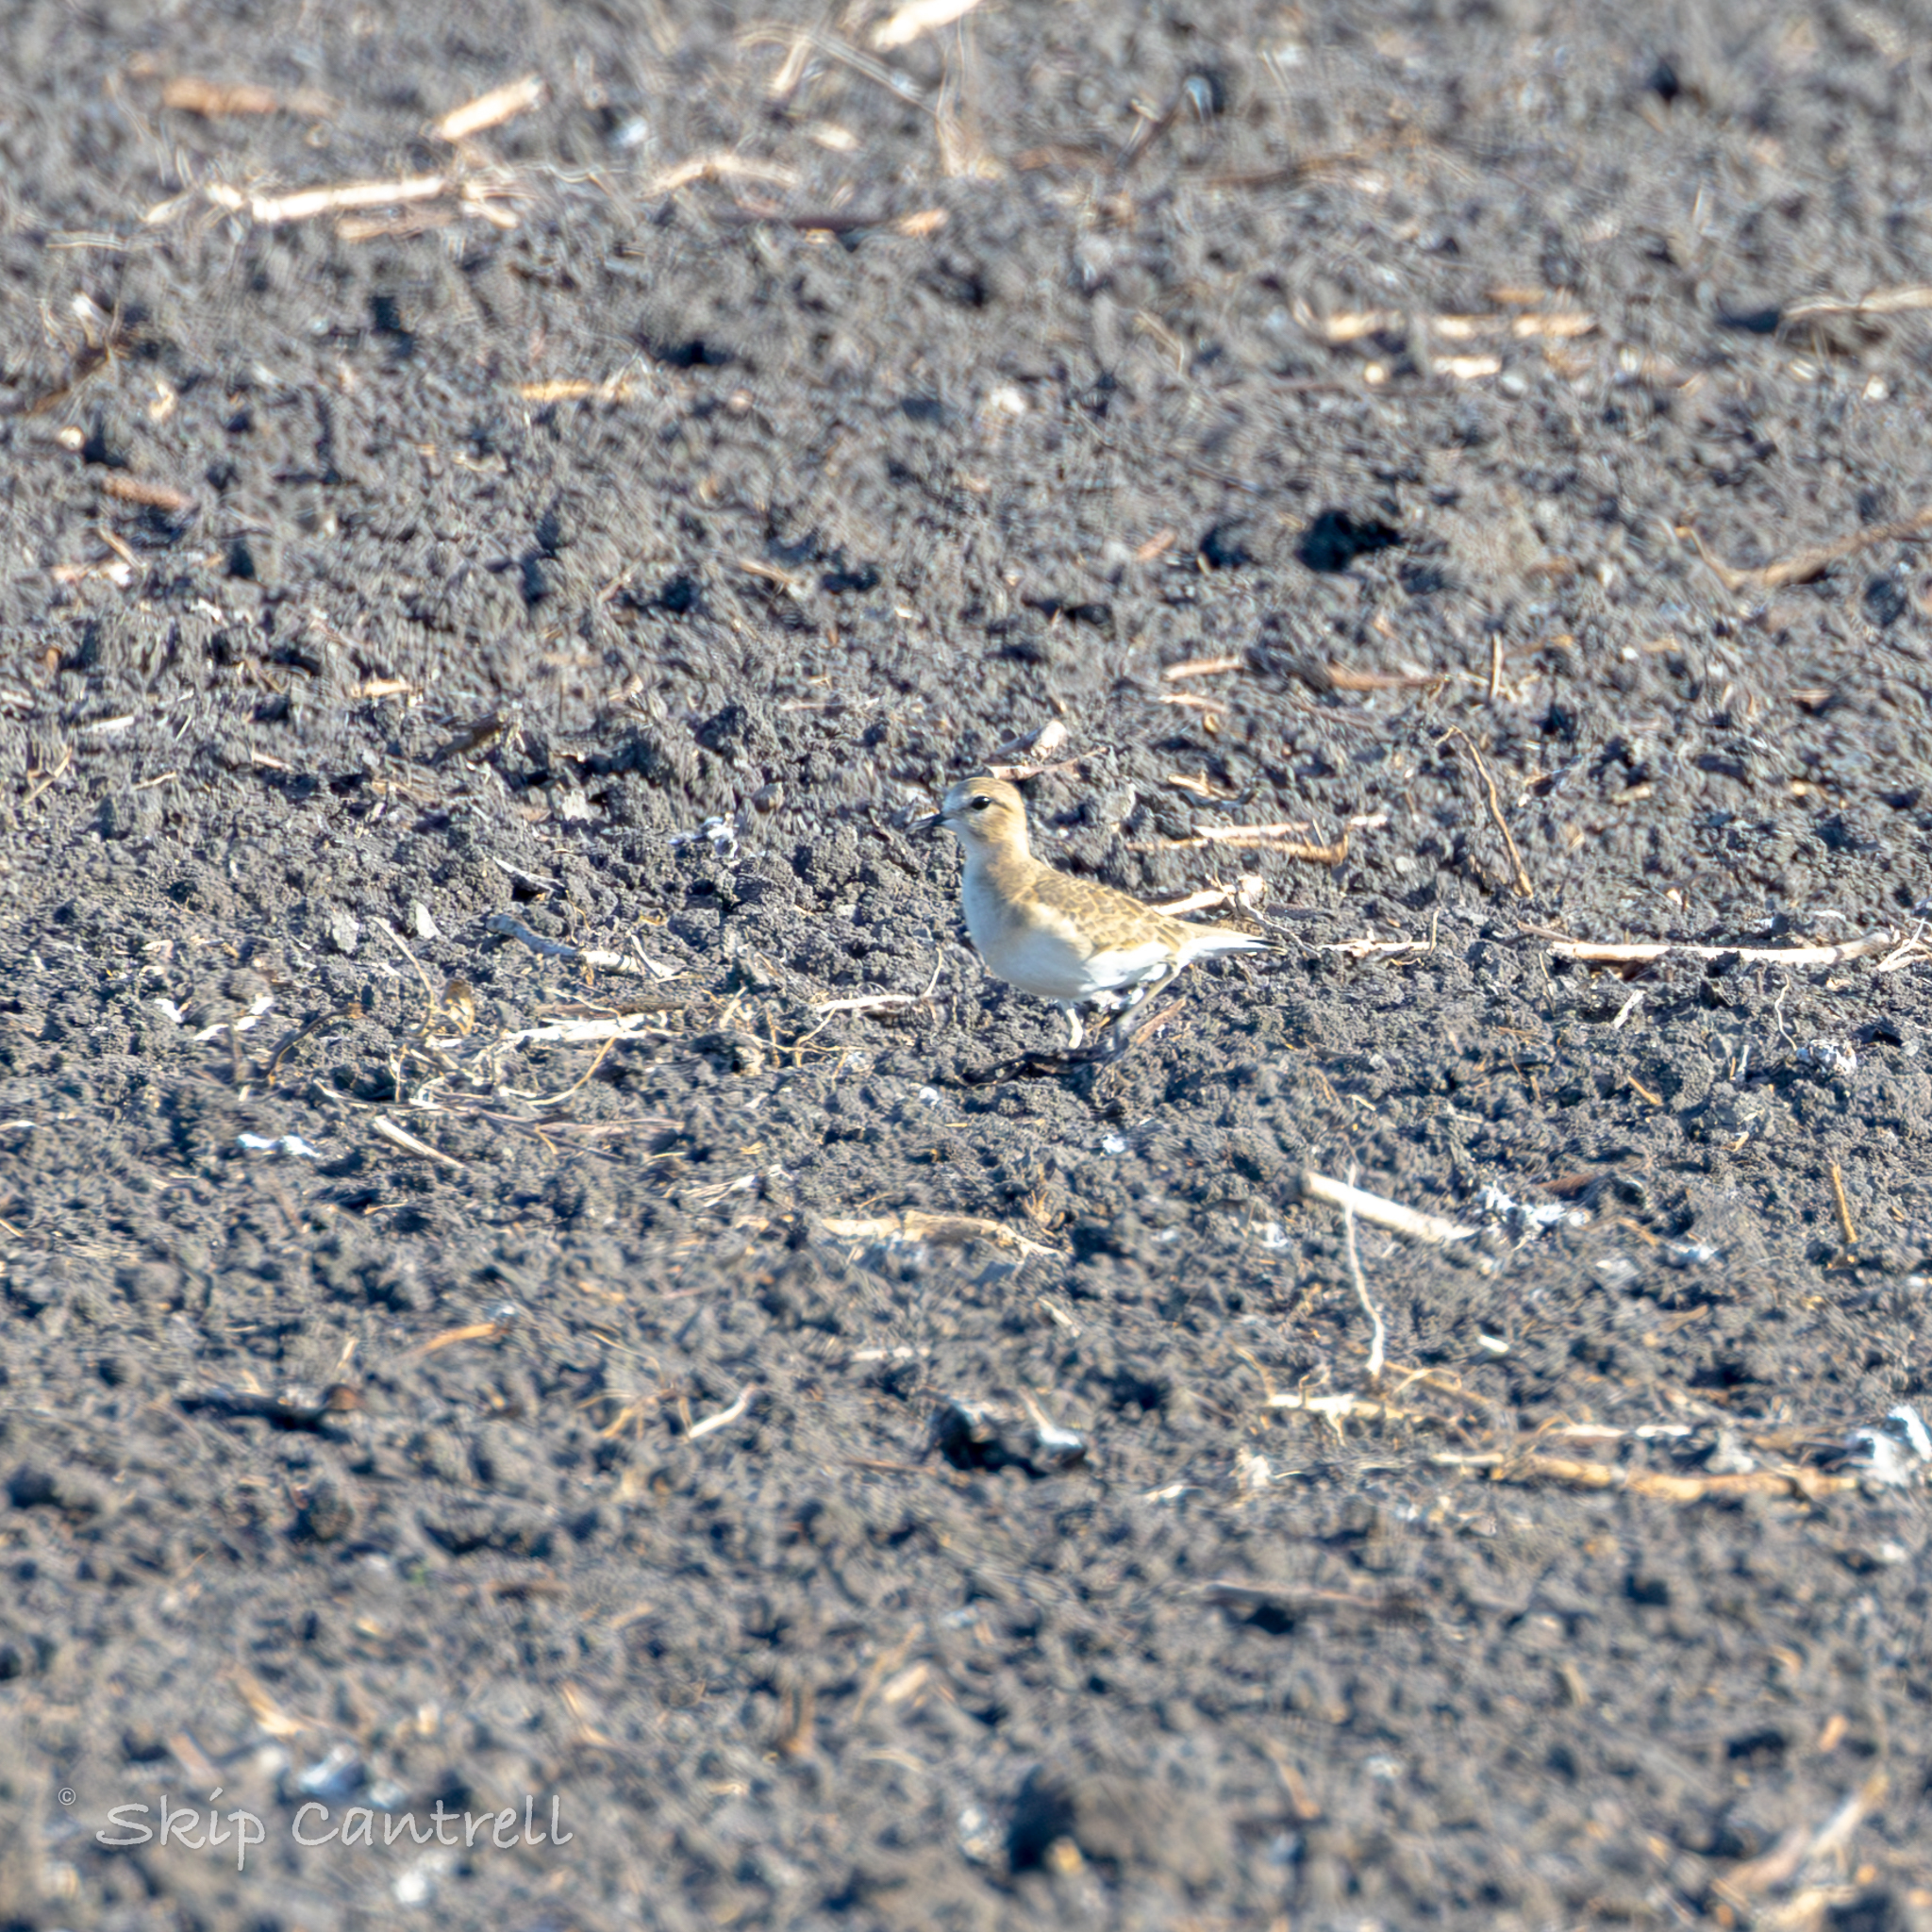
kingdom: Animalia
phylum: Chordata
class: Aves
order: Charadriiformes
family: Charadriidae
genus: Anarhynchus
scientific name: Anarhynchus
